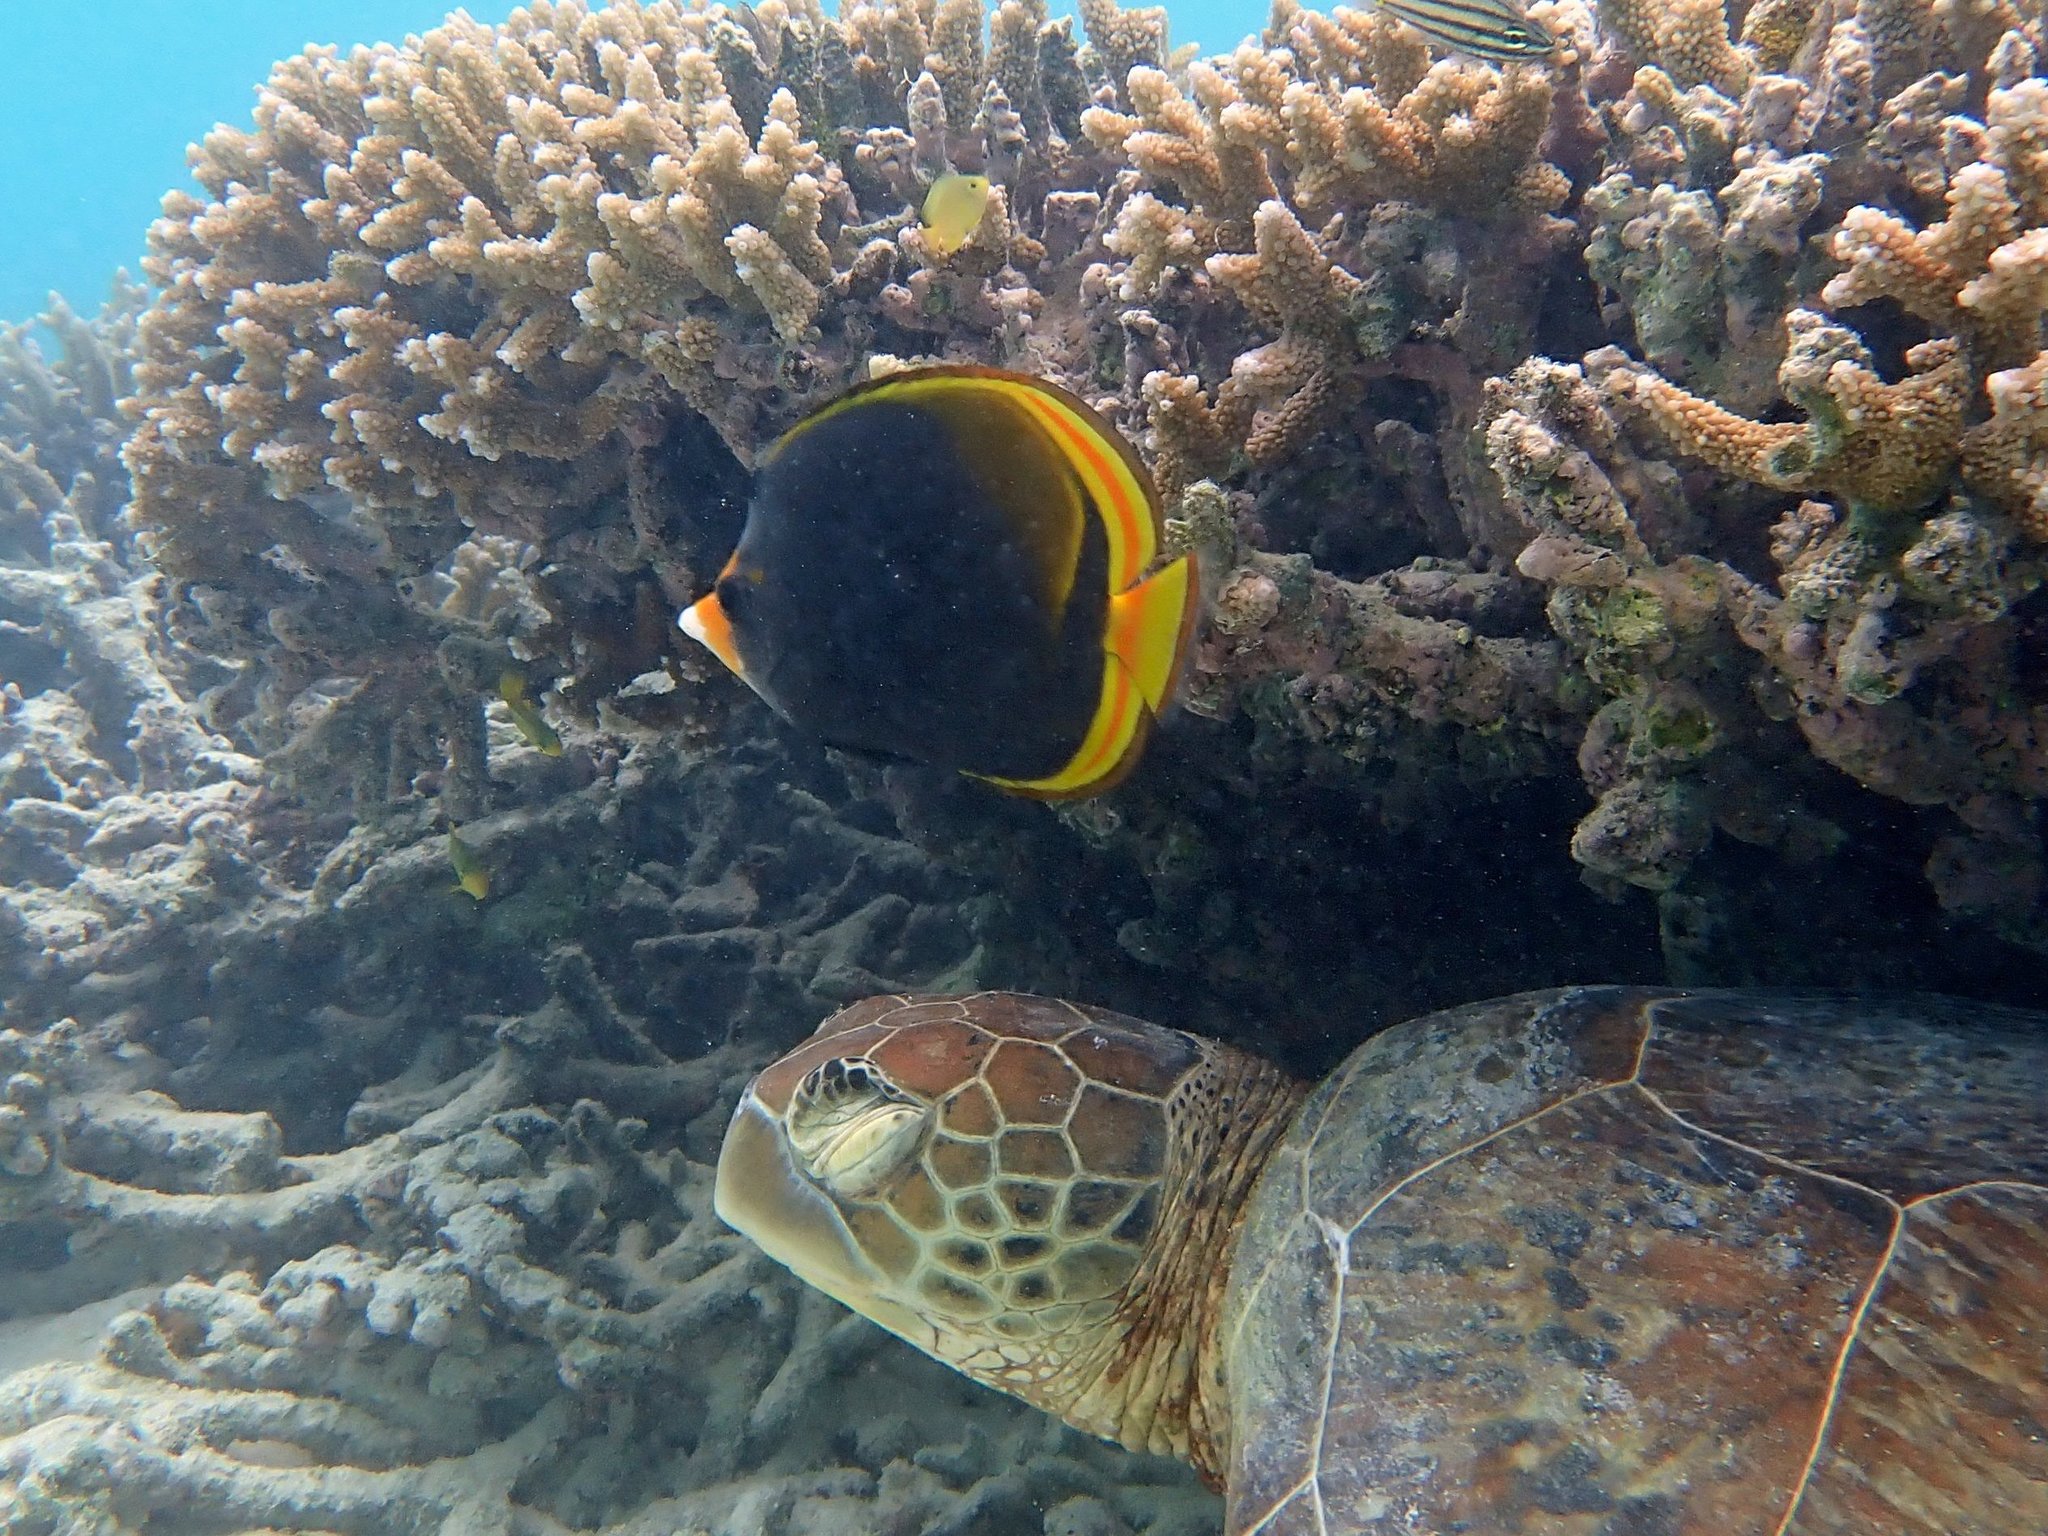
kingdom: Animalia
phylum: Chordata
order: Perciformes
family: Chaetodontidae
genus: Chaetodon
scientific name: Chaetodon flavirostris
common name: Black butterflyfish
